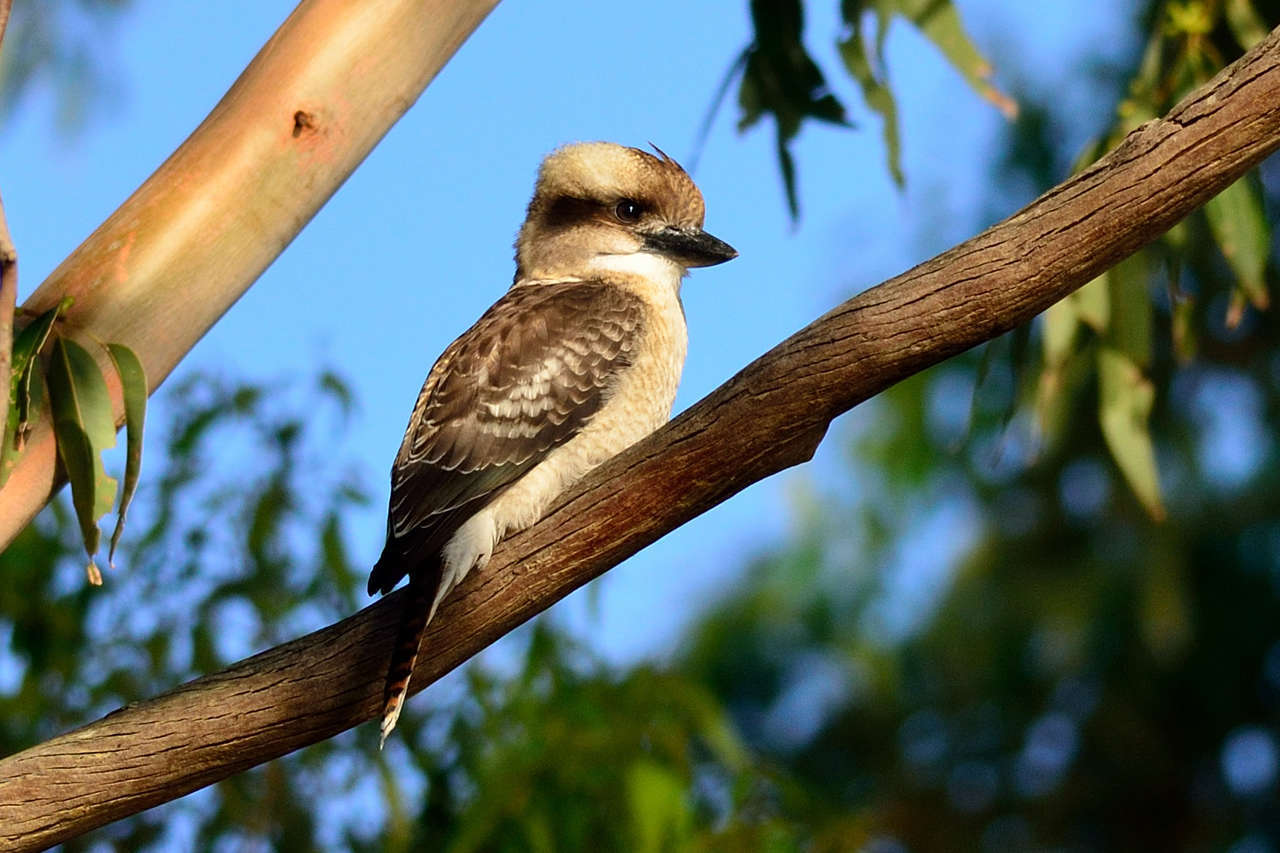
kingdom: Animalia
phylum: Chordata
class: Aves
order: Coraciiformes
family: Alcedinidae
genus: Dacelo
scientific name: Dacelo novaeguineae
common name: Laughing kookaburra
